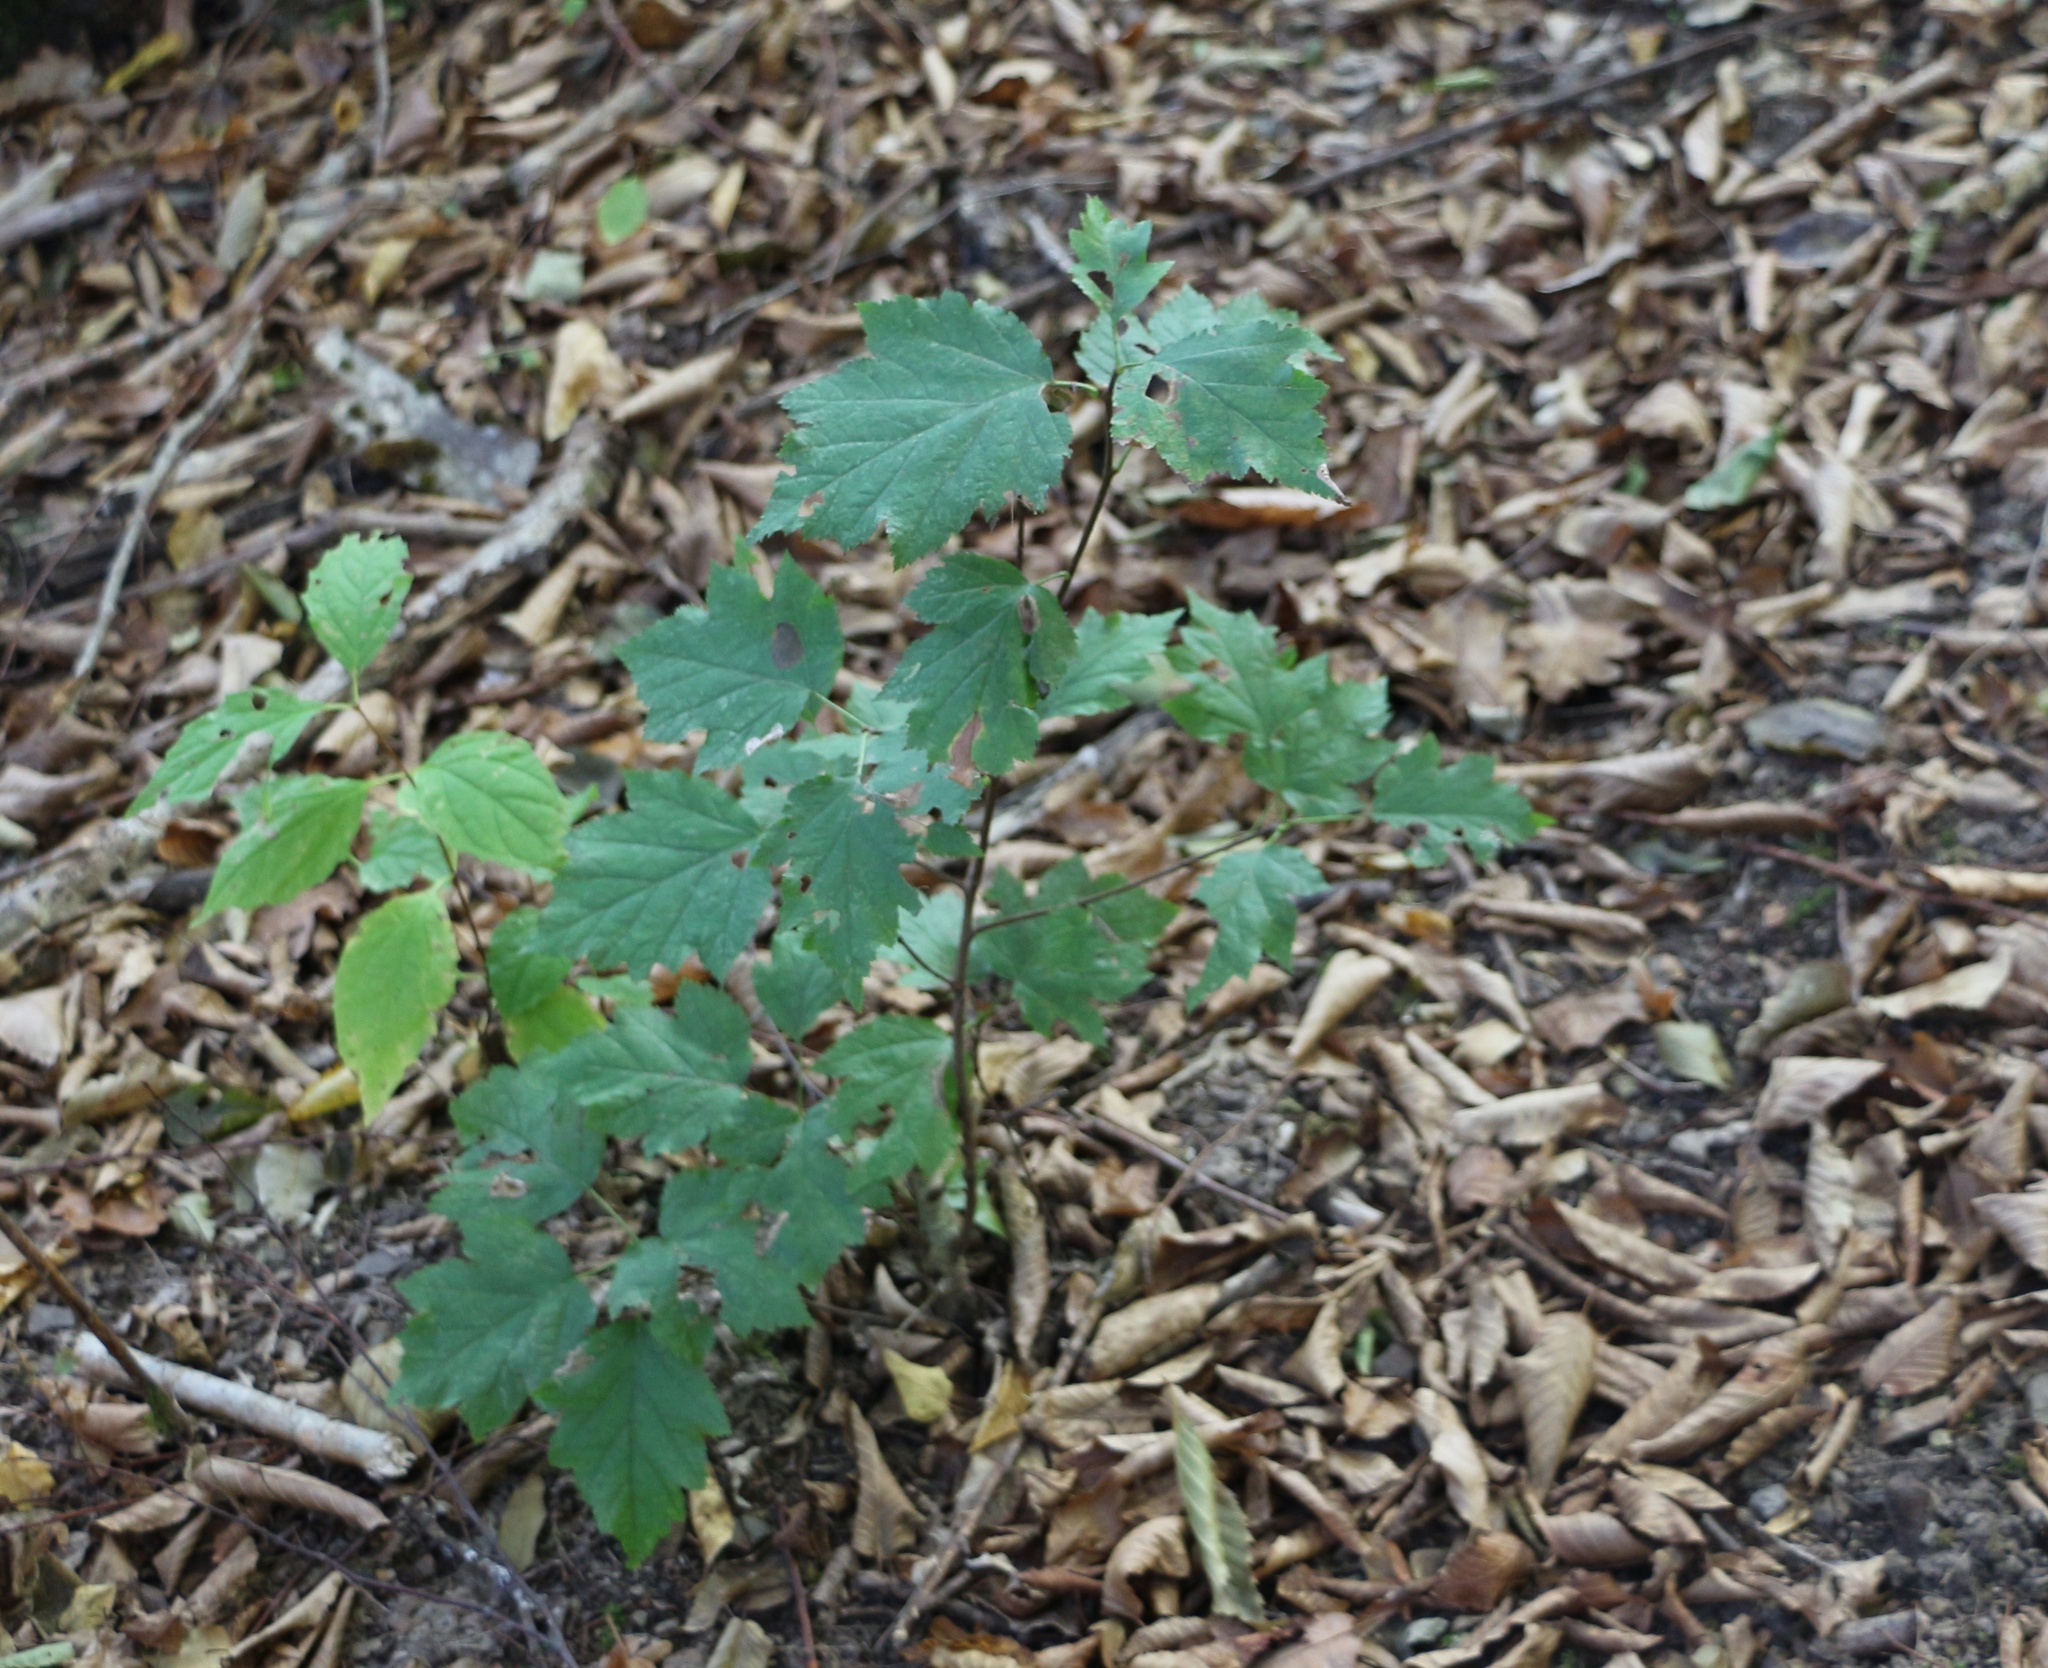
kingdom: Plantae
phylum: Tracheophyta
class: Magnoliopsida
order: Rosales
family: Rosaceae
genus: Torminalis
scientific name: Torminalis glaberrima
